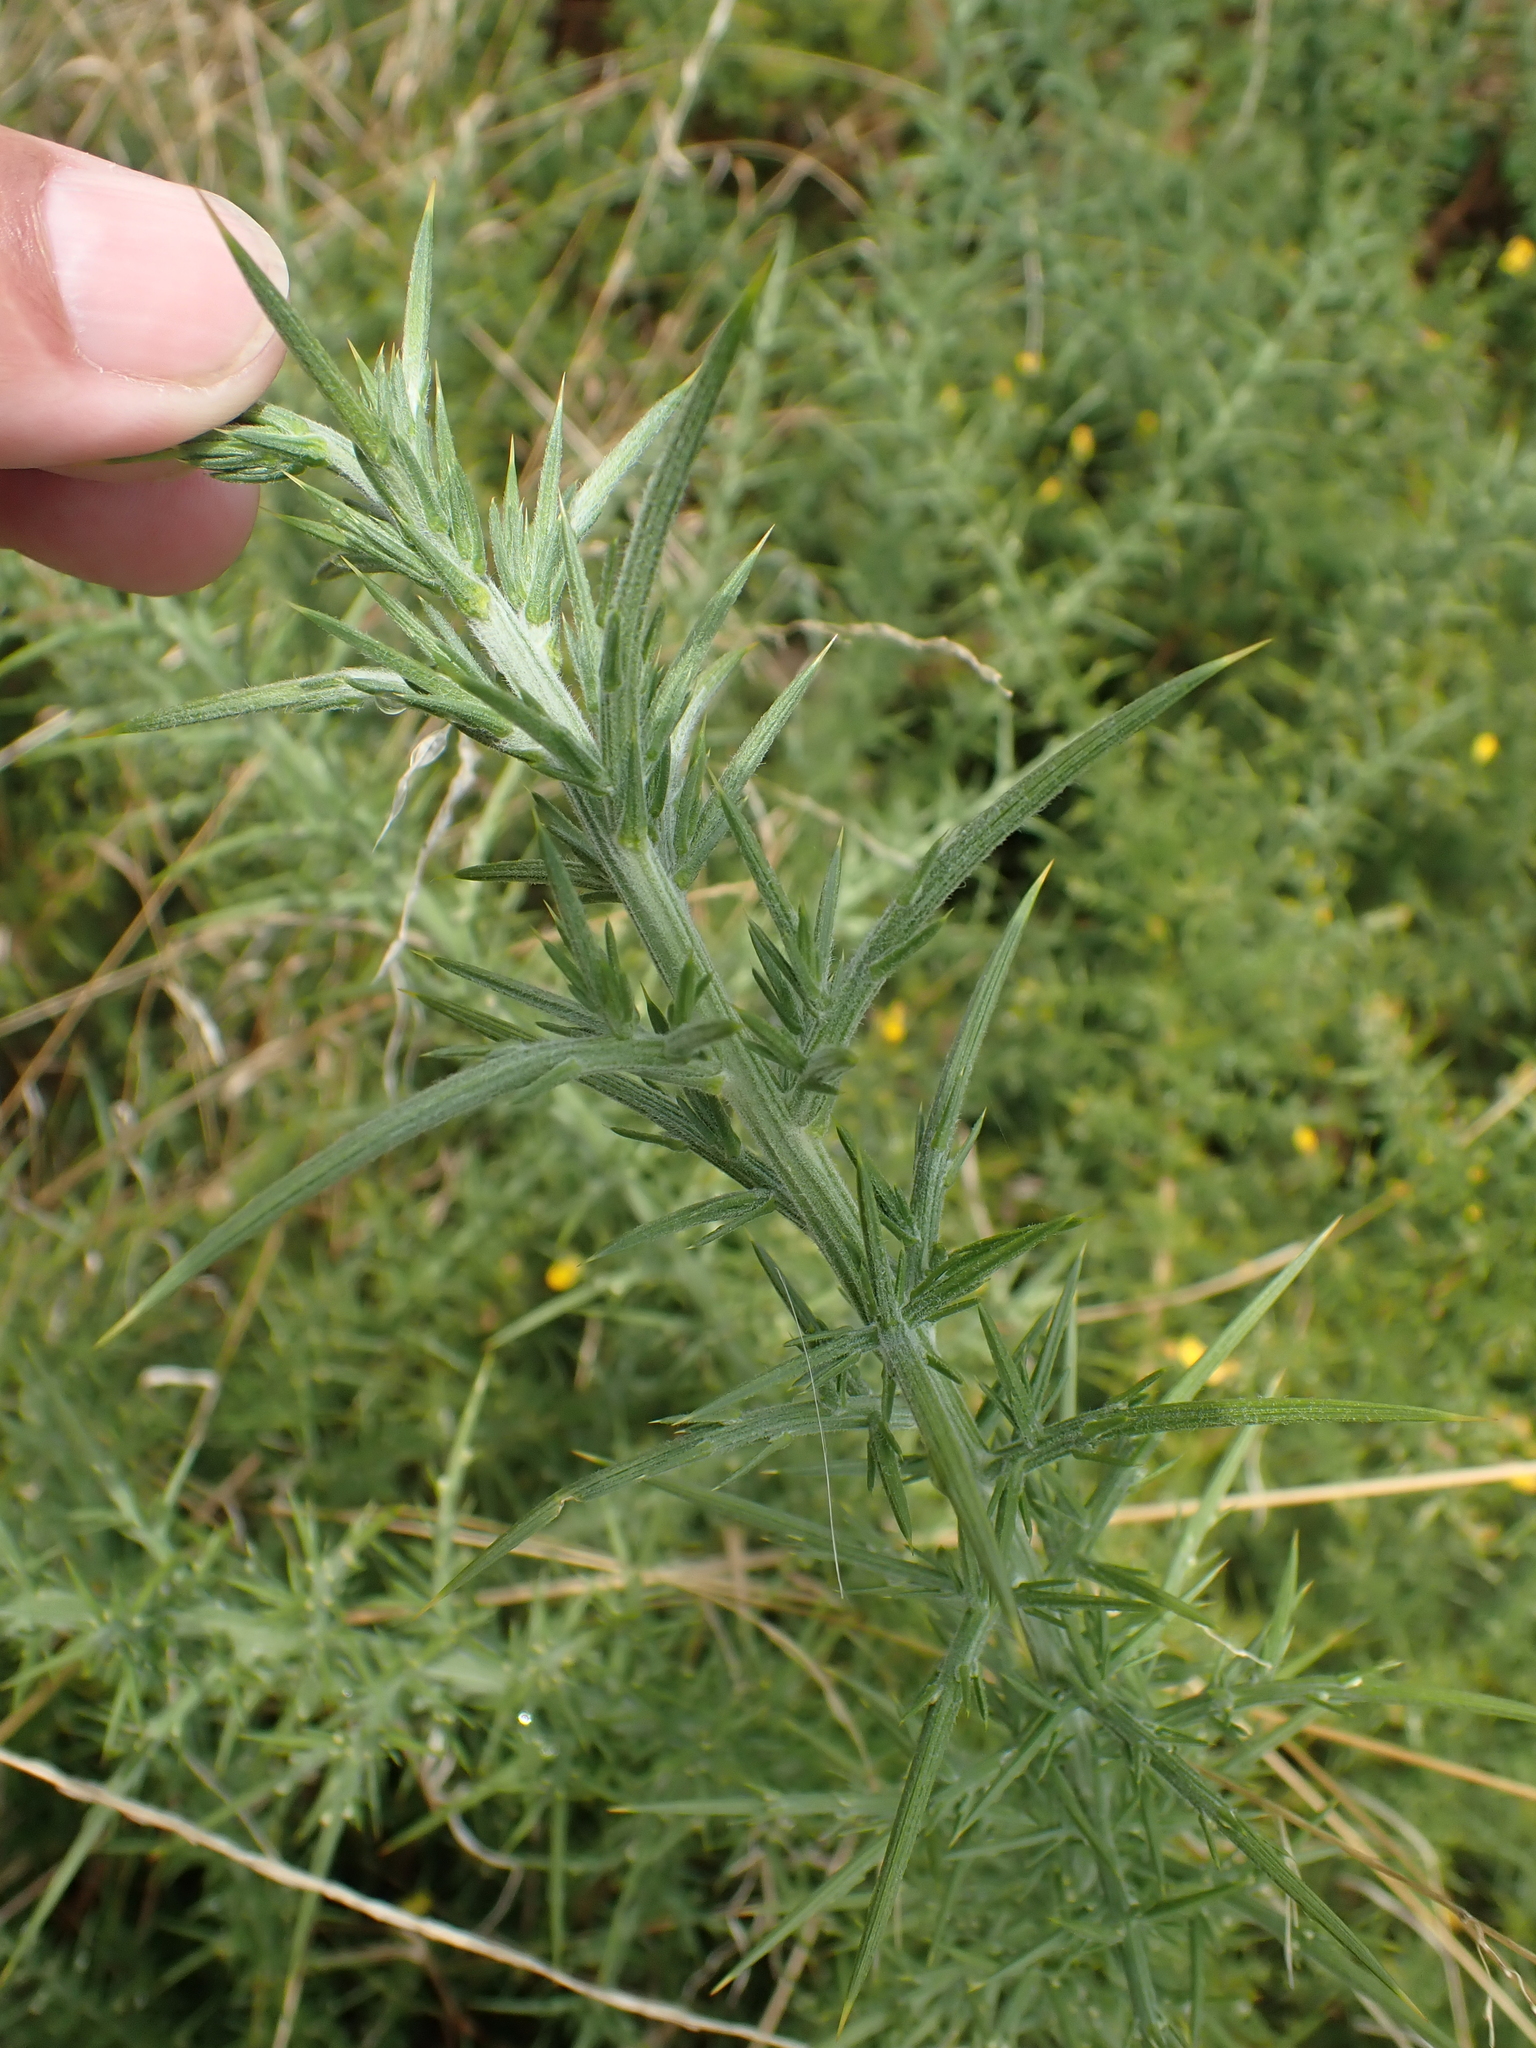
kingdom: Plantae
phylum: Tracheophyta
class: Magnoliopsida
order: Fabales
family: Fabaceae
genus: Ulex
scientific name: Ulex europaeus
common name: Common gorse
